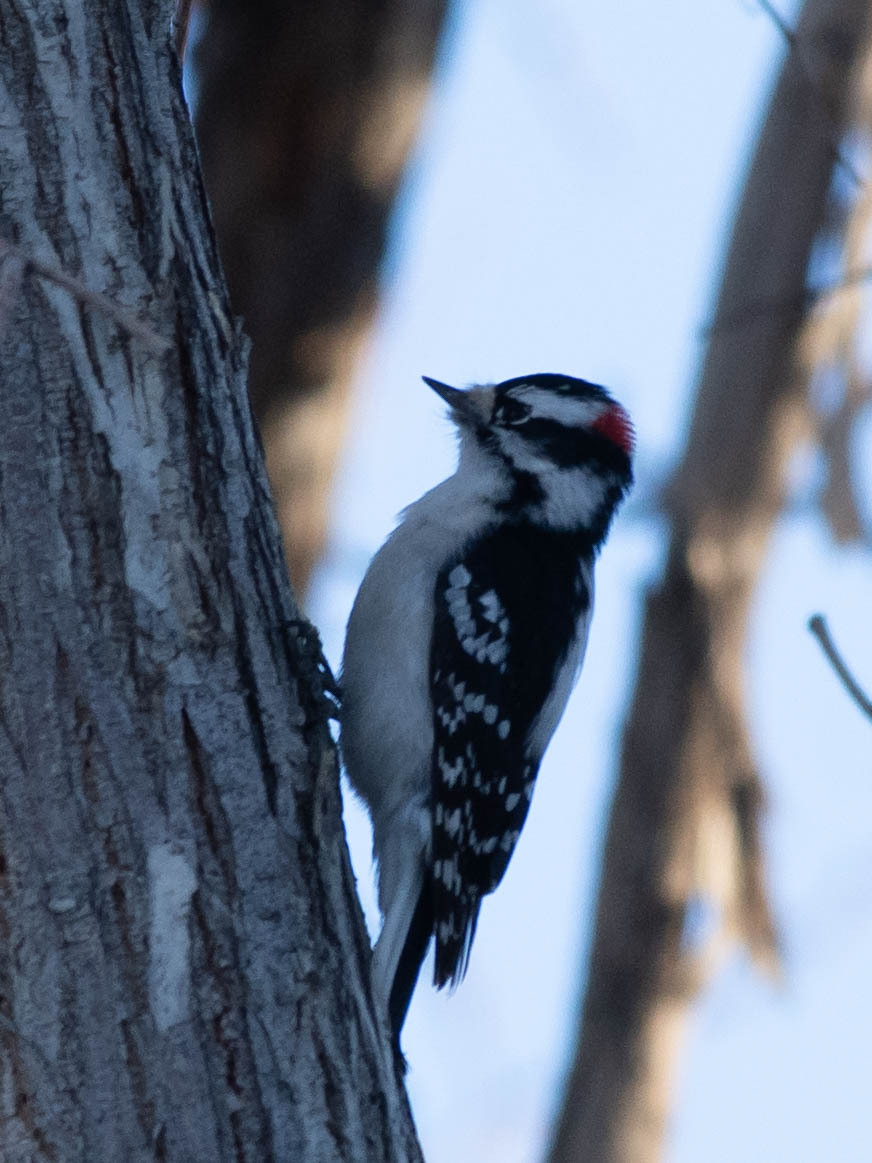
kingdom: Animalia
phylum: Chordata
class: Aves
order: Piciformes
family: Picidae
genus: Dryobates
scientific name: Dryobates pubescens
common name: Downy woodpecker
